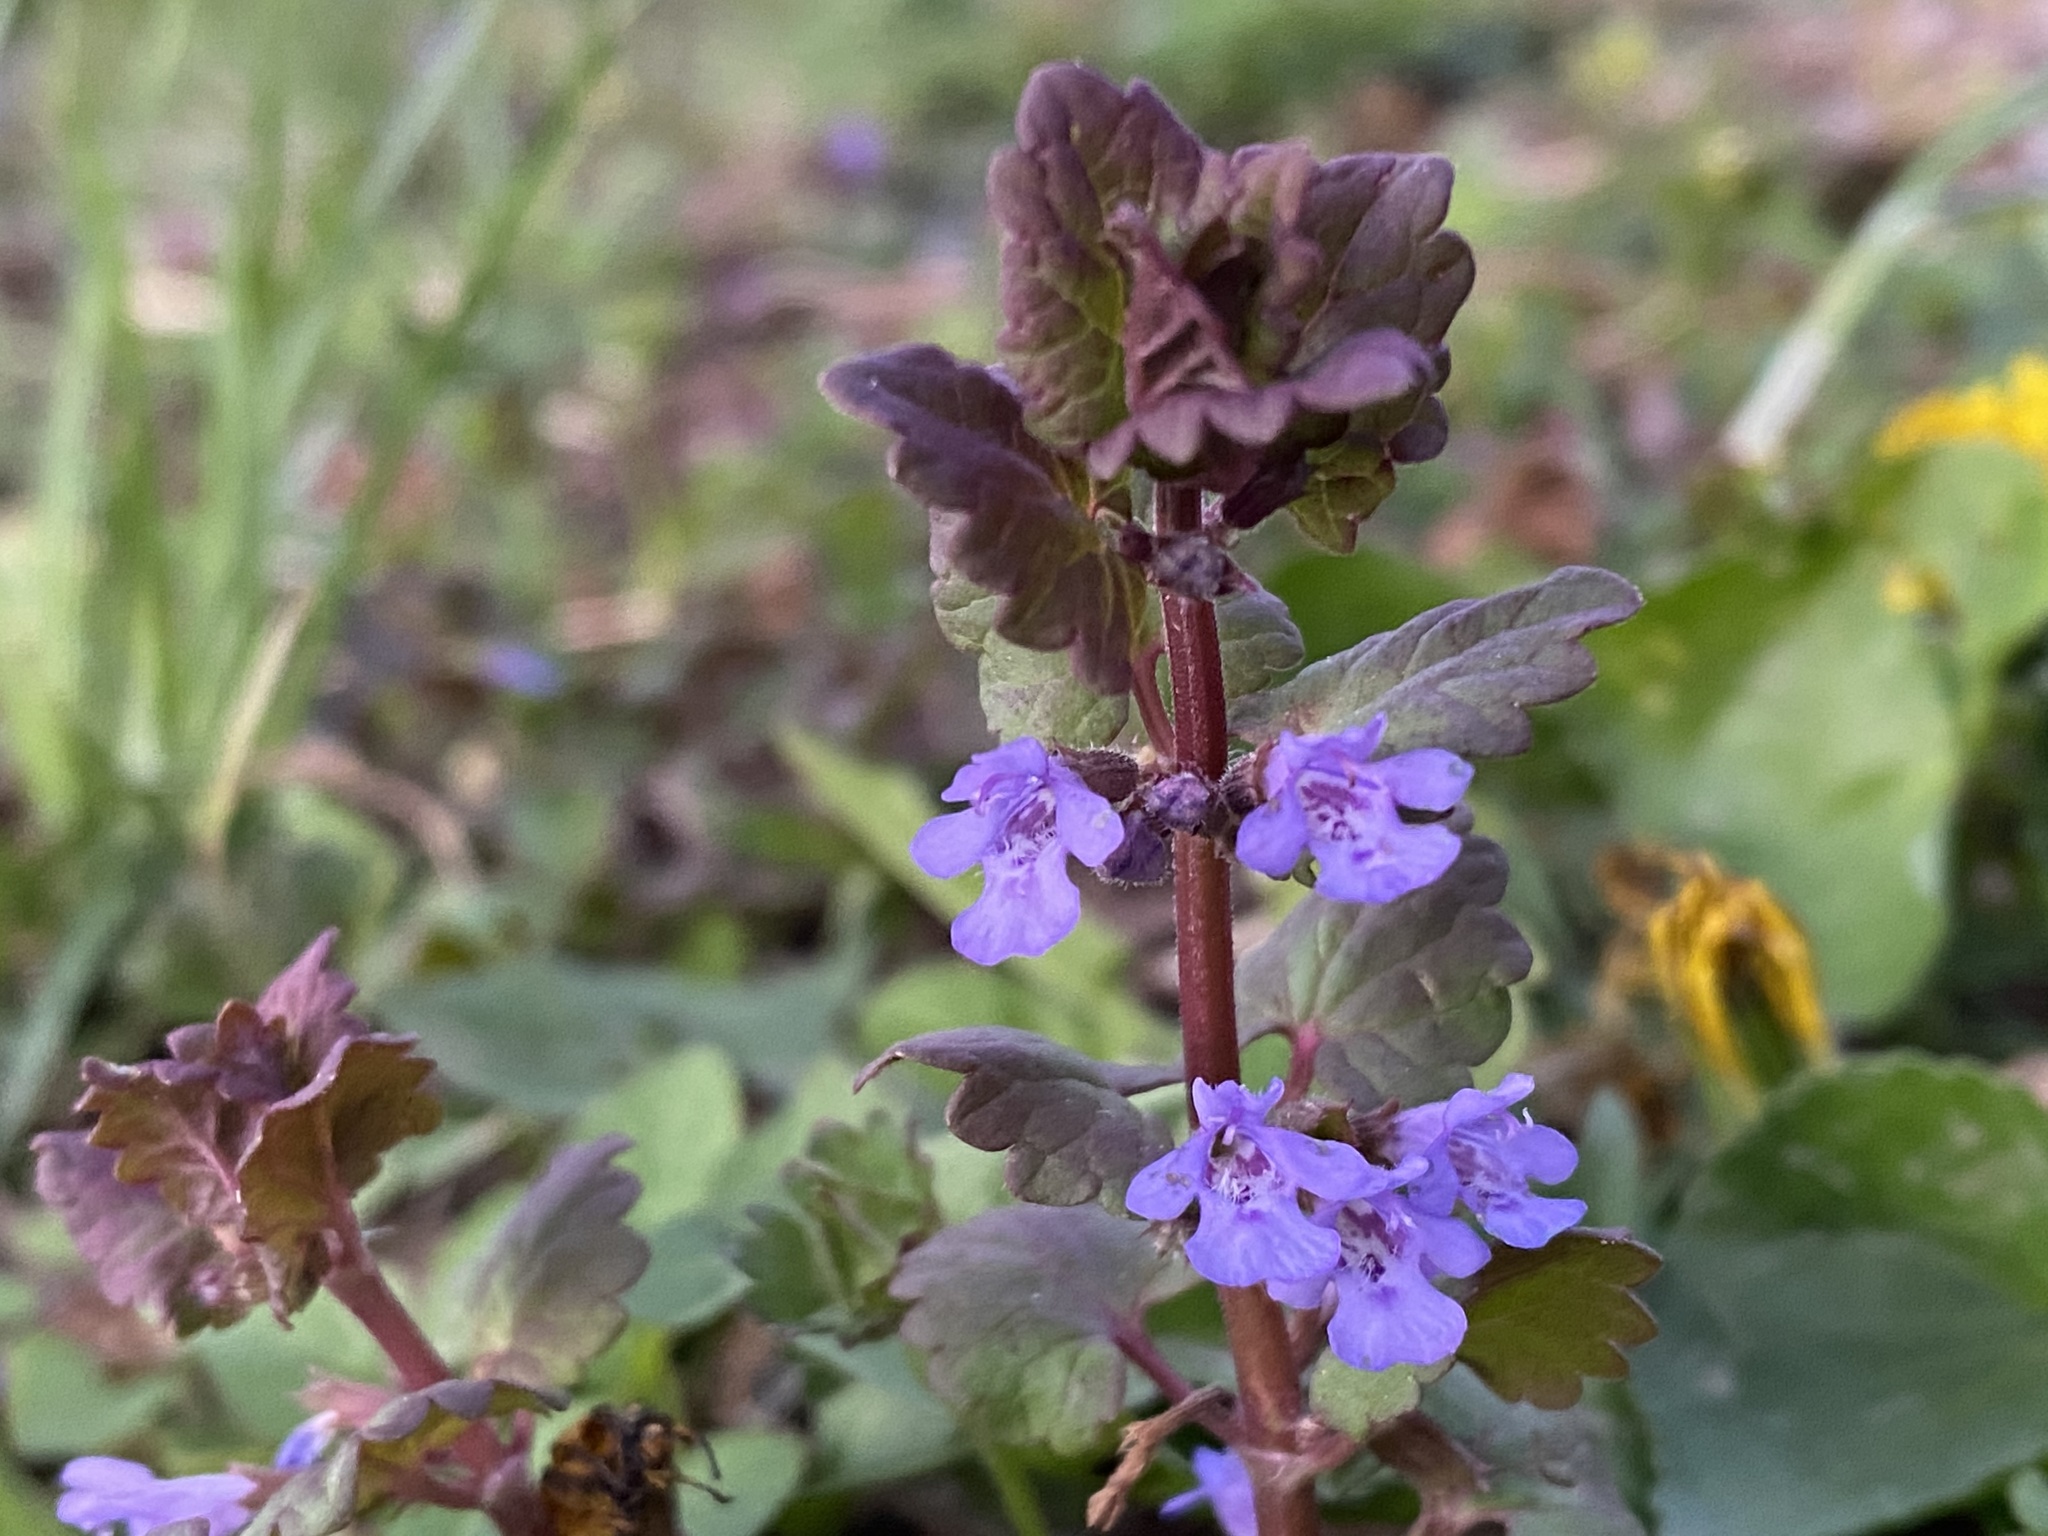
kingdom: Plantae
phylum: Tracheophyta
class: Magnoliopsida
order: Lamiales
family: Lamiaceae
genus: Glechoma
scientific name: Glechoma hederacea
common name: Ground ivy
